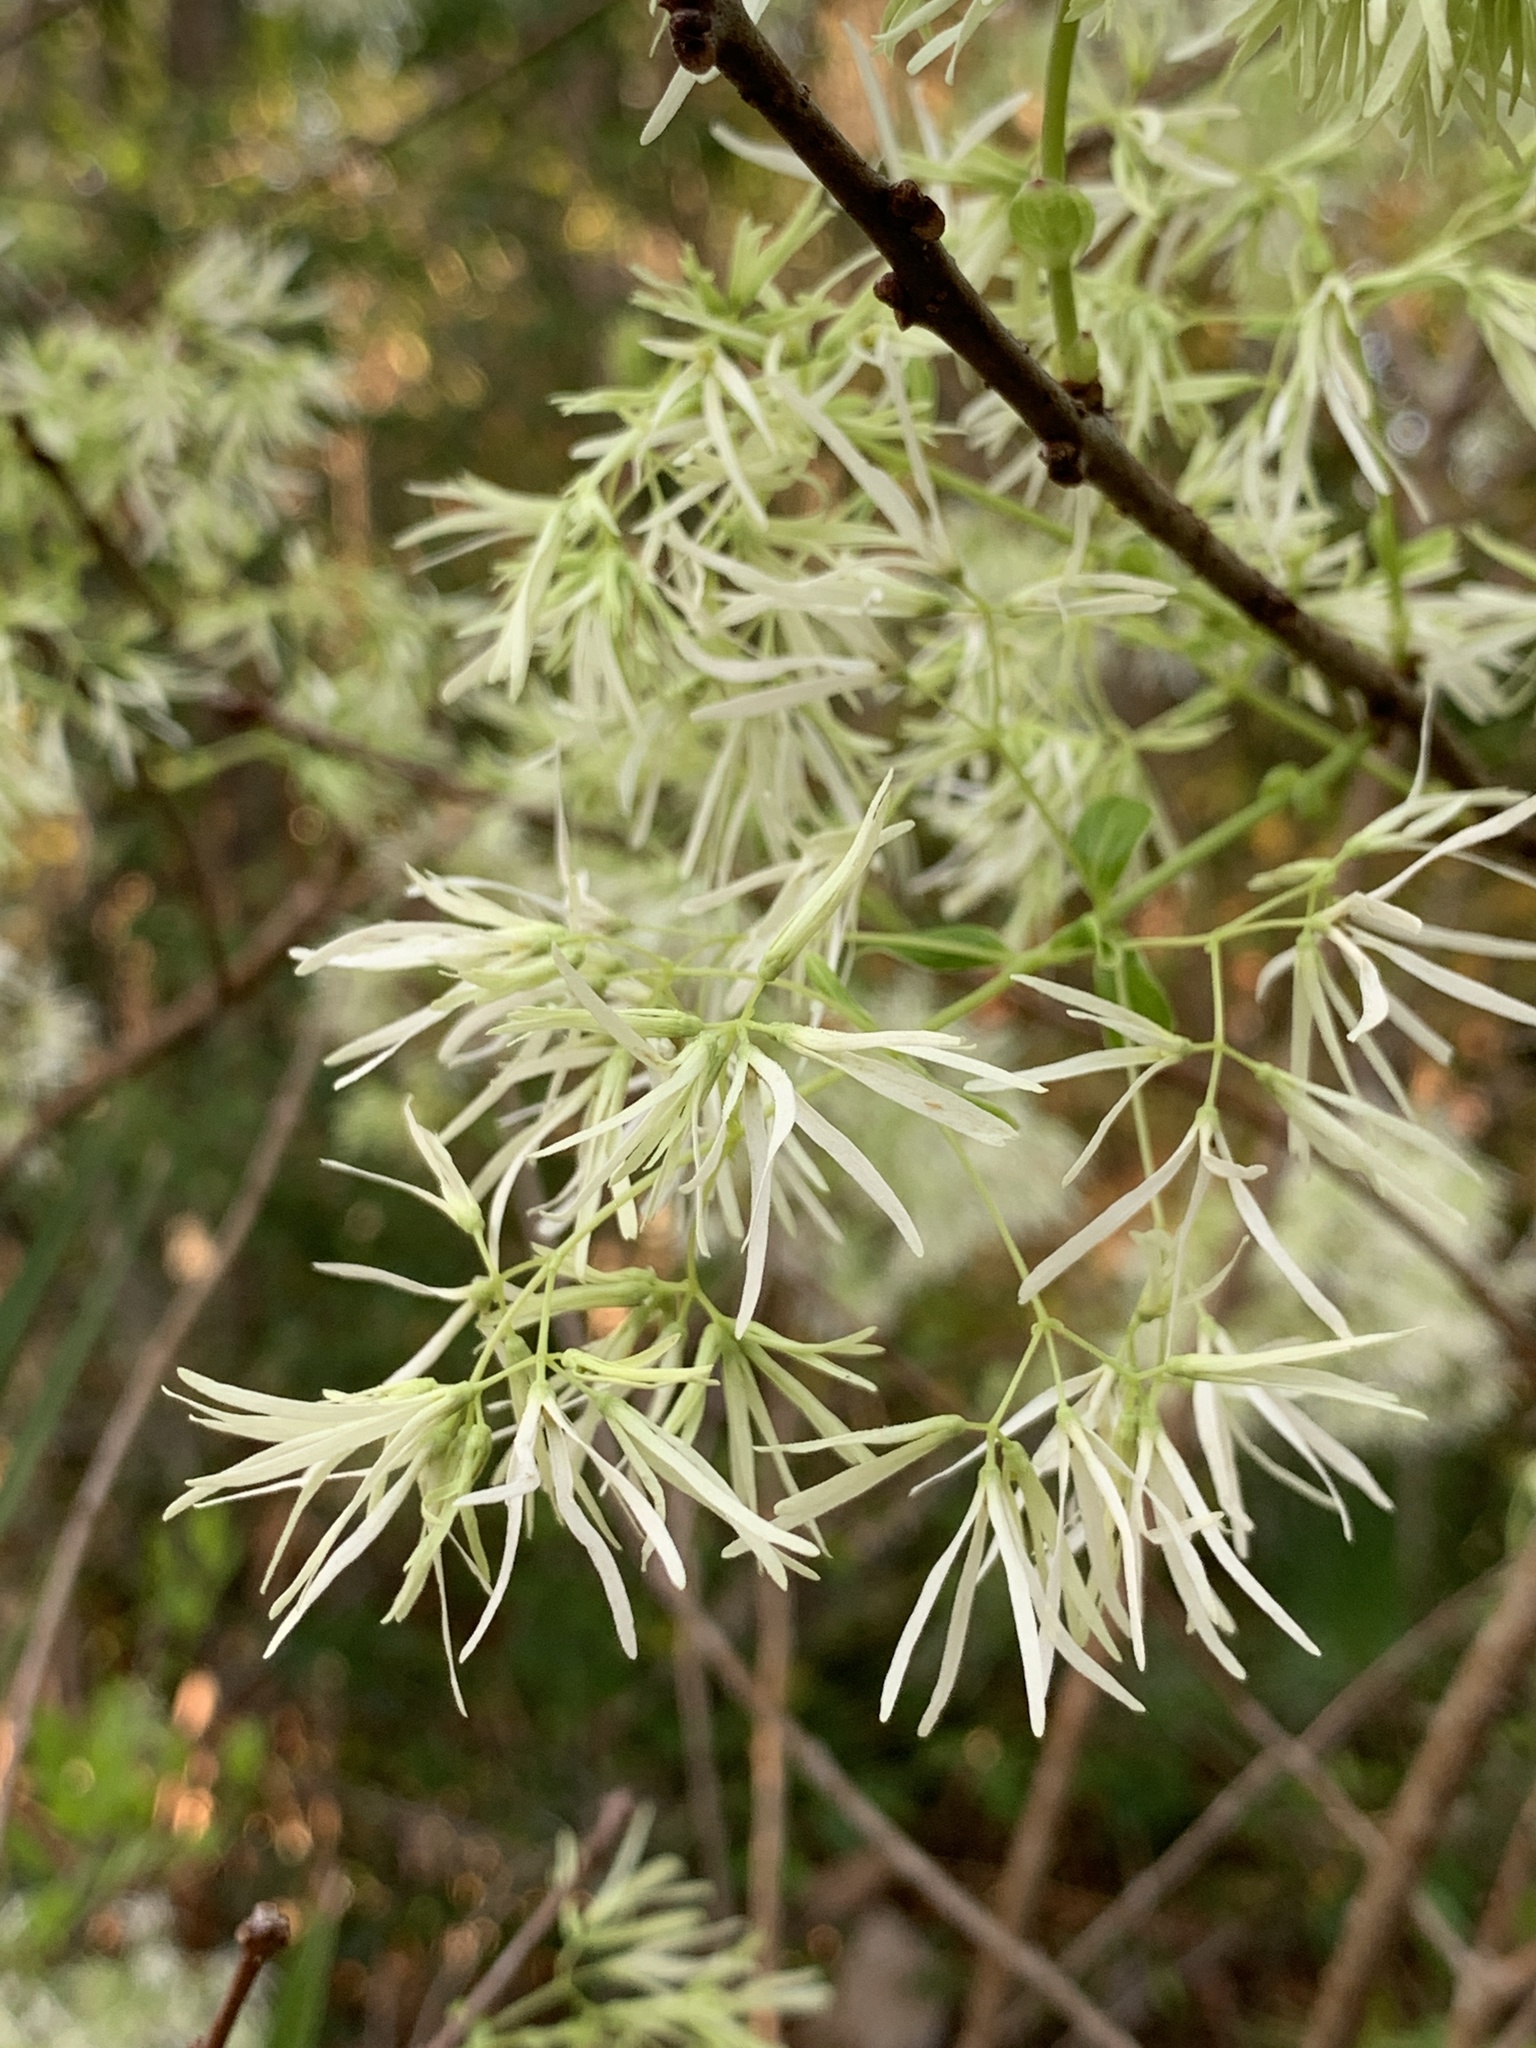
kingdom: Plantae
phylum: Tracheophyta
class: Magnoliopsida
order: Lamiales
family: Oleaceae
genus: Chionanthus
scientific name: Chionanthus virginicus
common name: American fringetree
